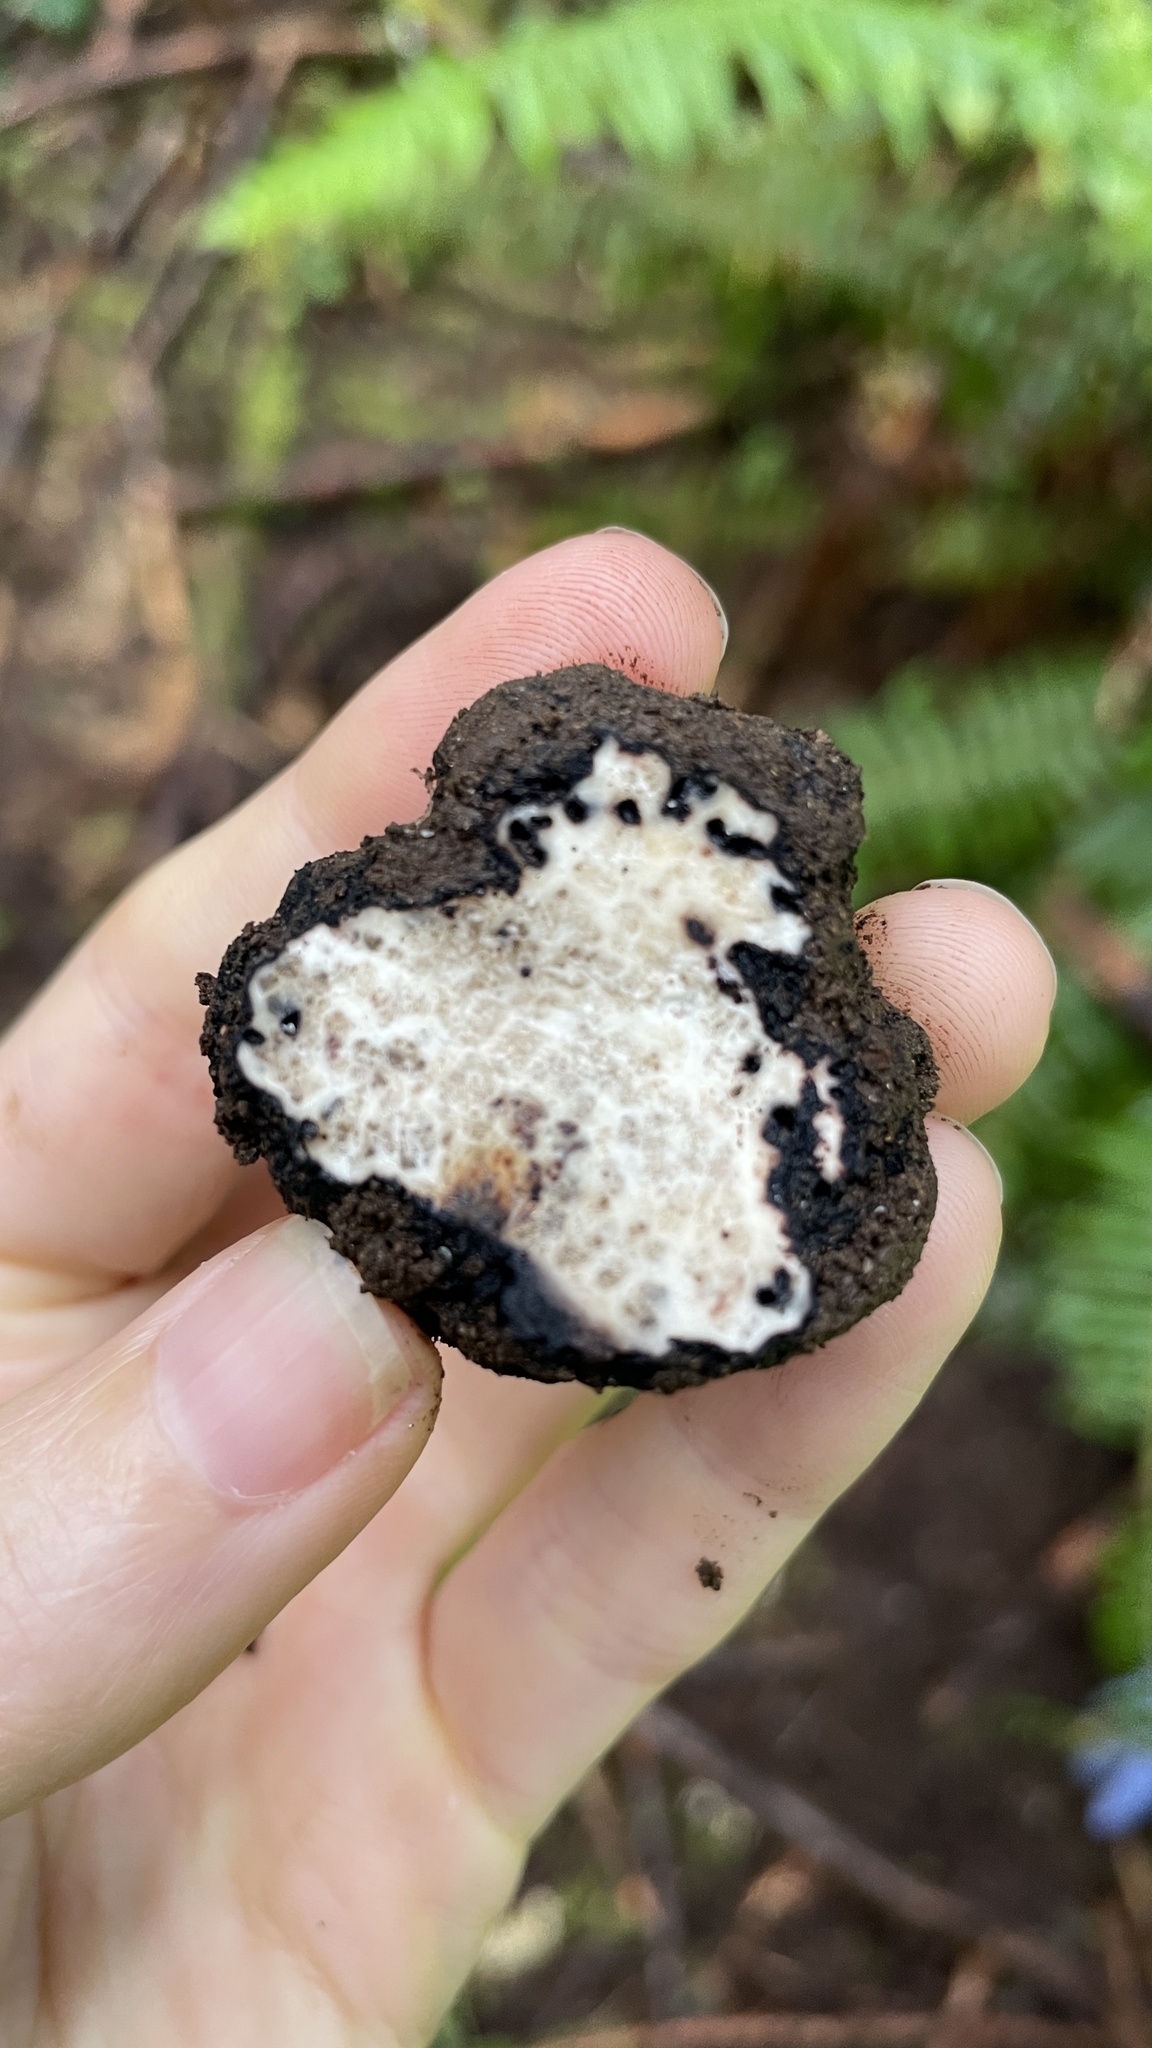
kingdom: Fungi
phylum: Ascomycota
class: Pezizomycetes
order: Pezizales
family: Morchellaceae
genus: Leucangium
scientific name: Leucangium carthusianum
